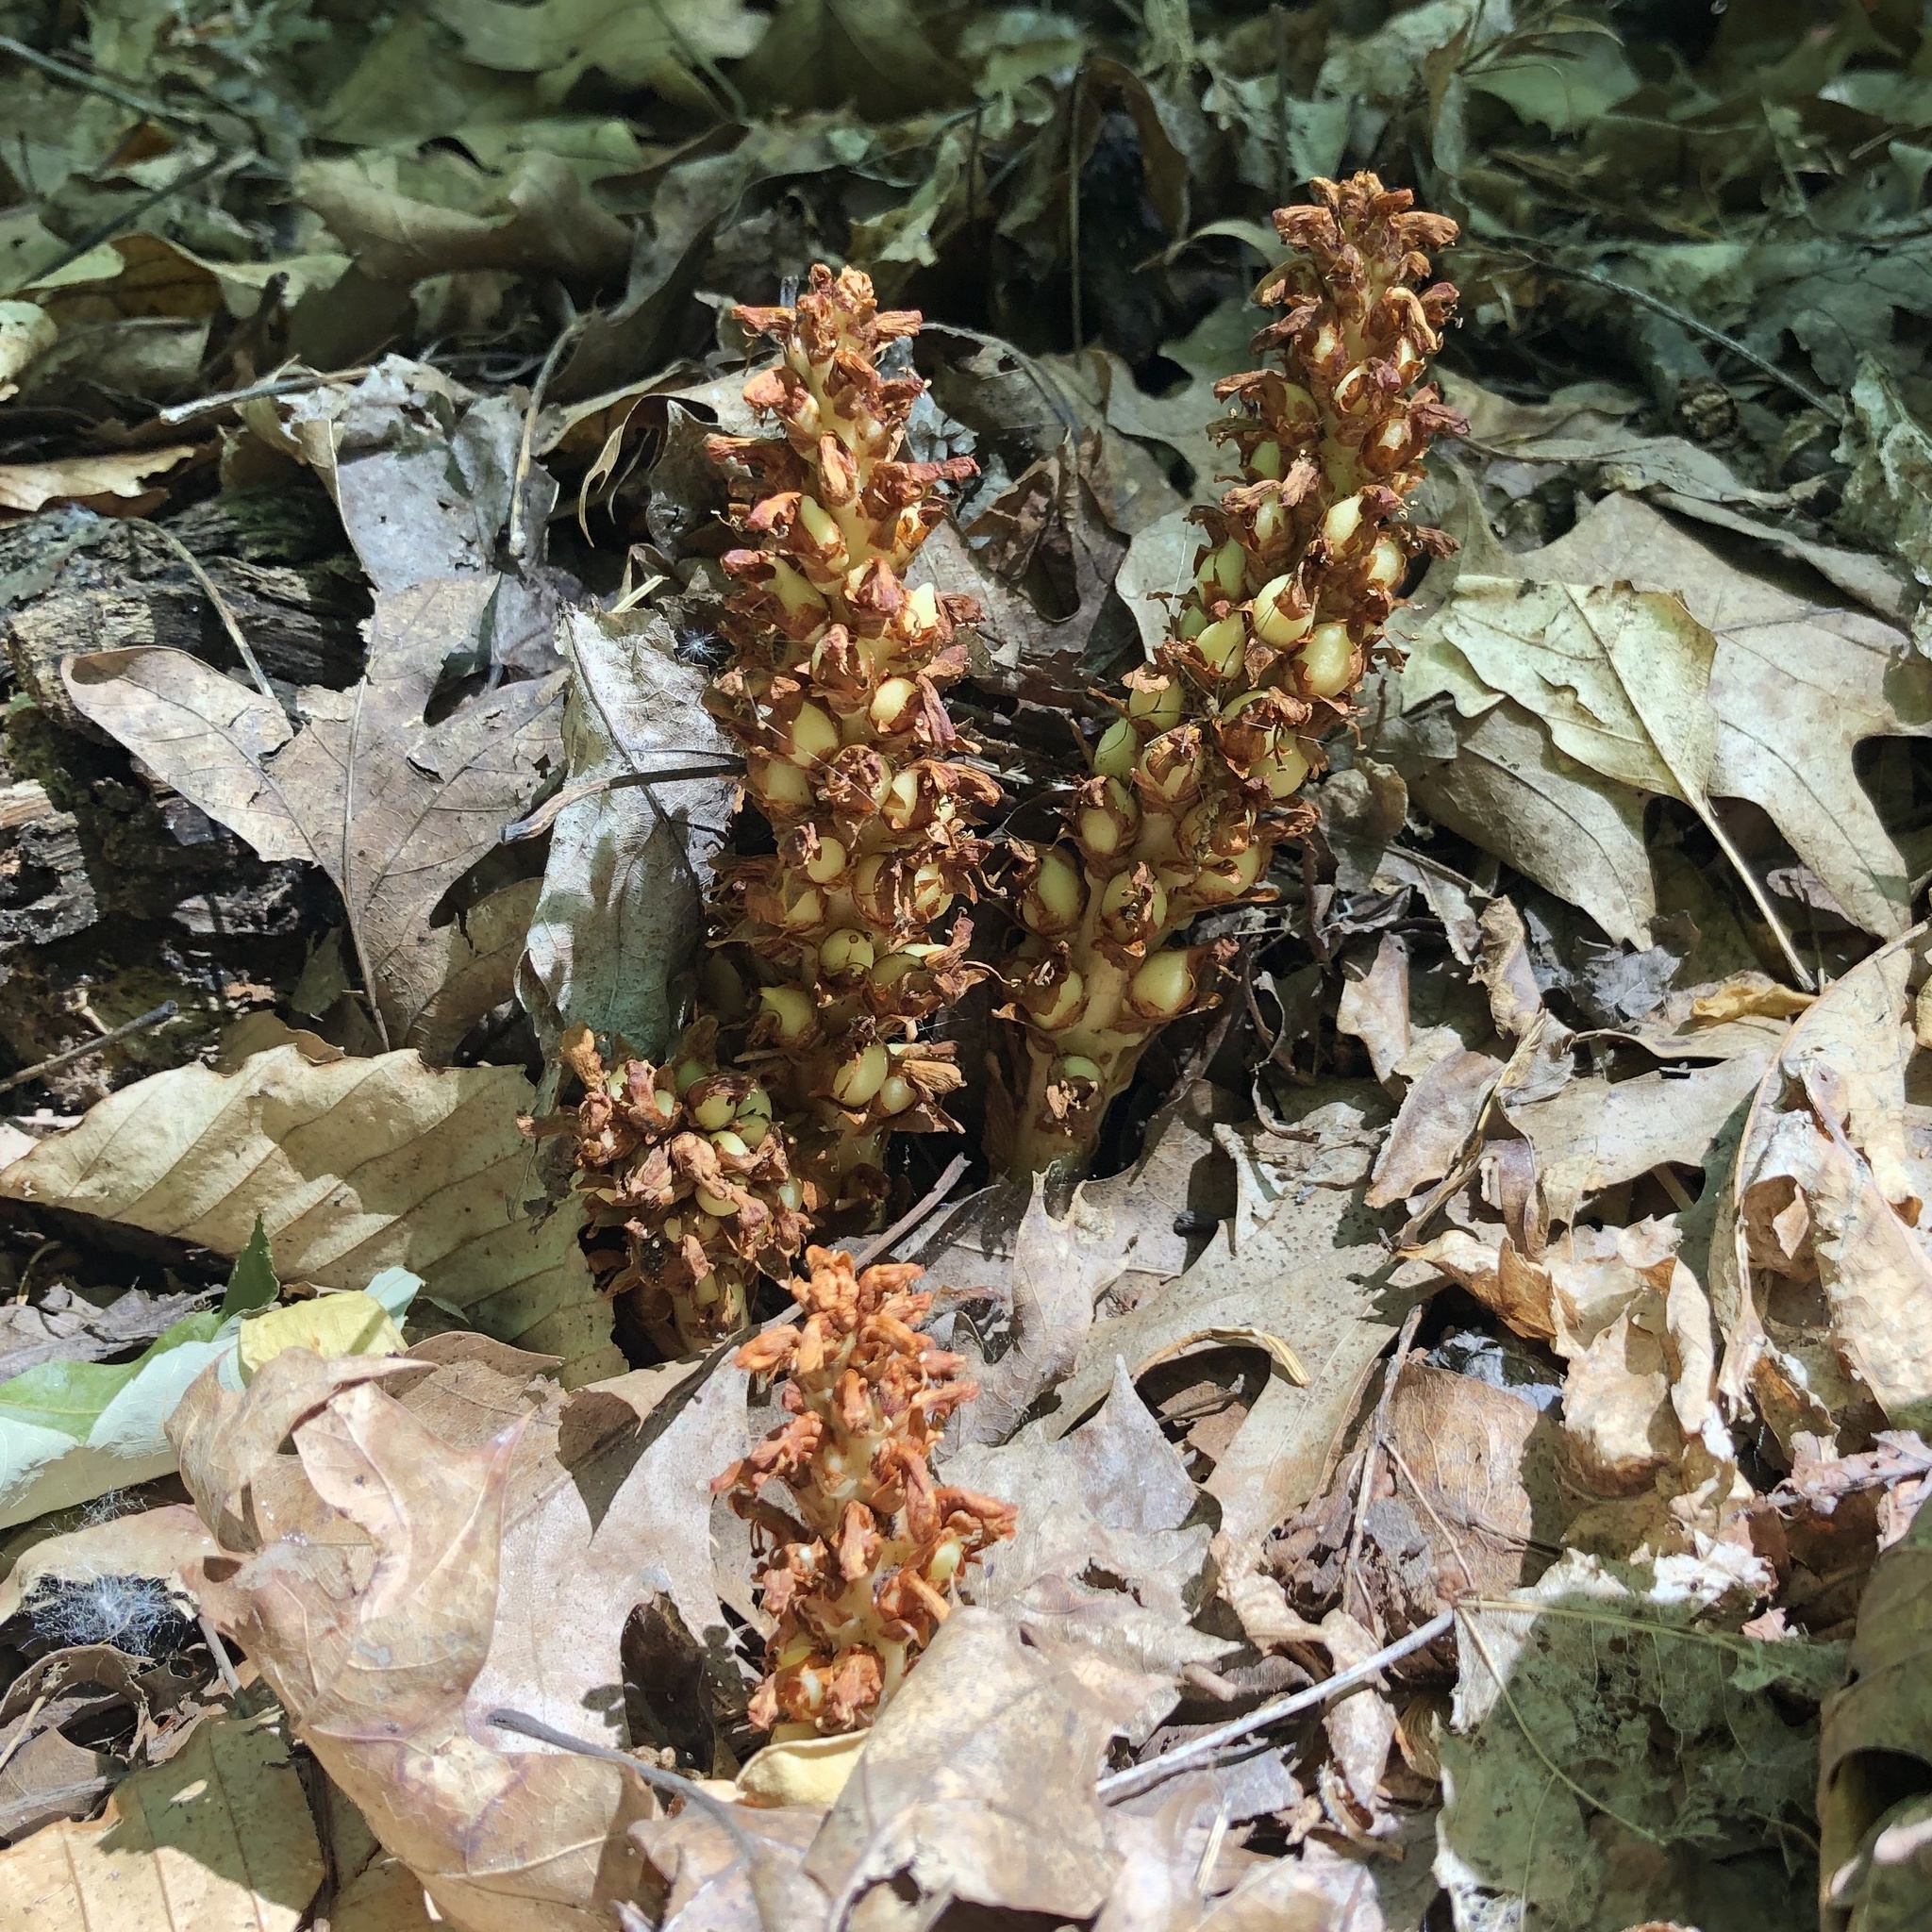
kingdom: Plantae
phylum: Tracheophyta
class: Magnoliopsida
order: Lamiales
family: Orobanchaceae
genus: Conopholis
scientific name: Conopholis americana
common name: American cancer-root
